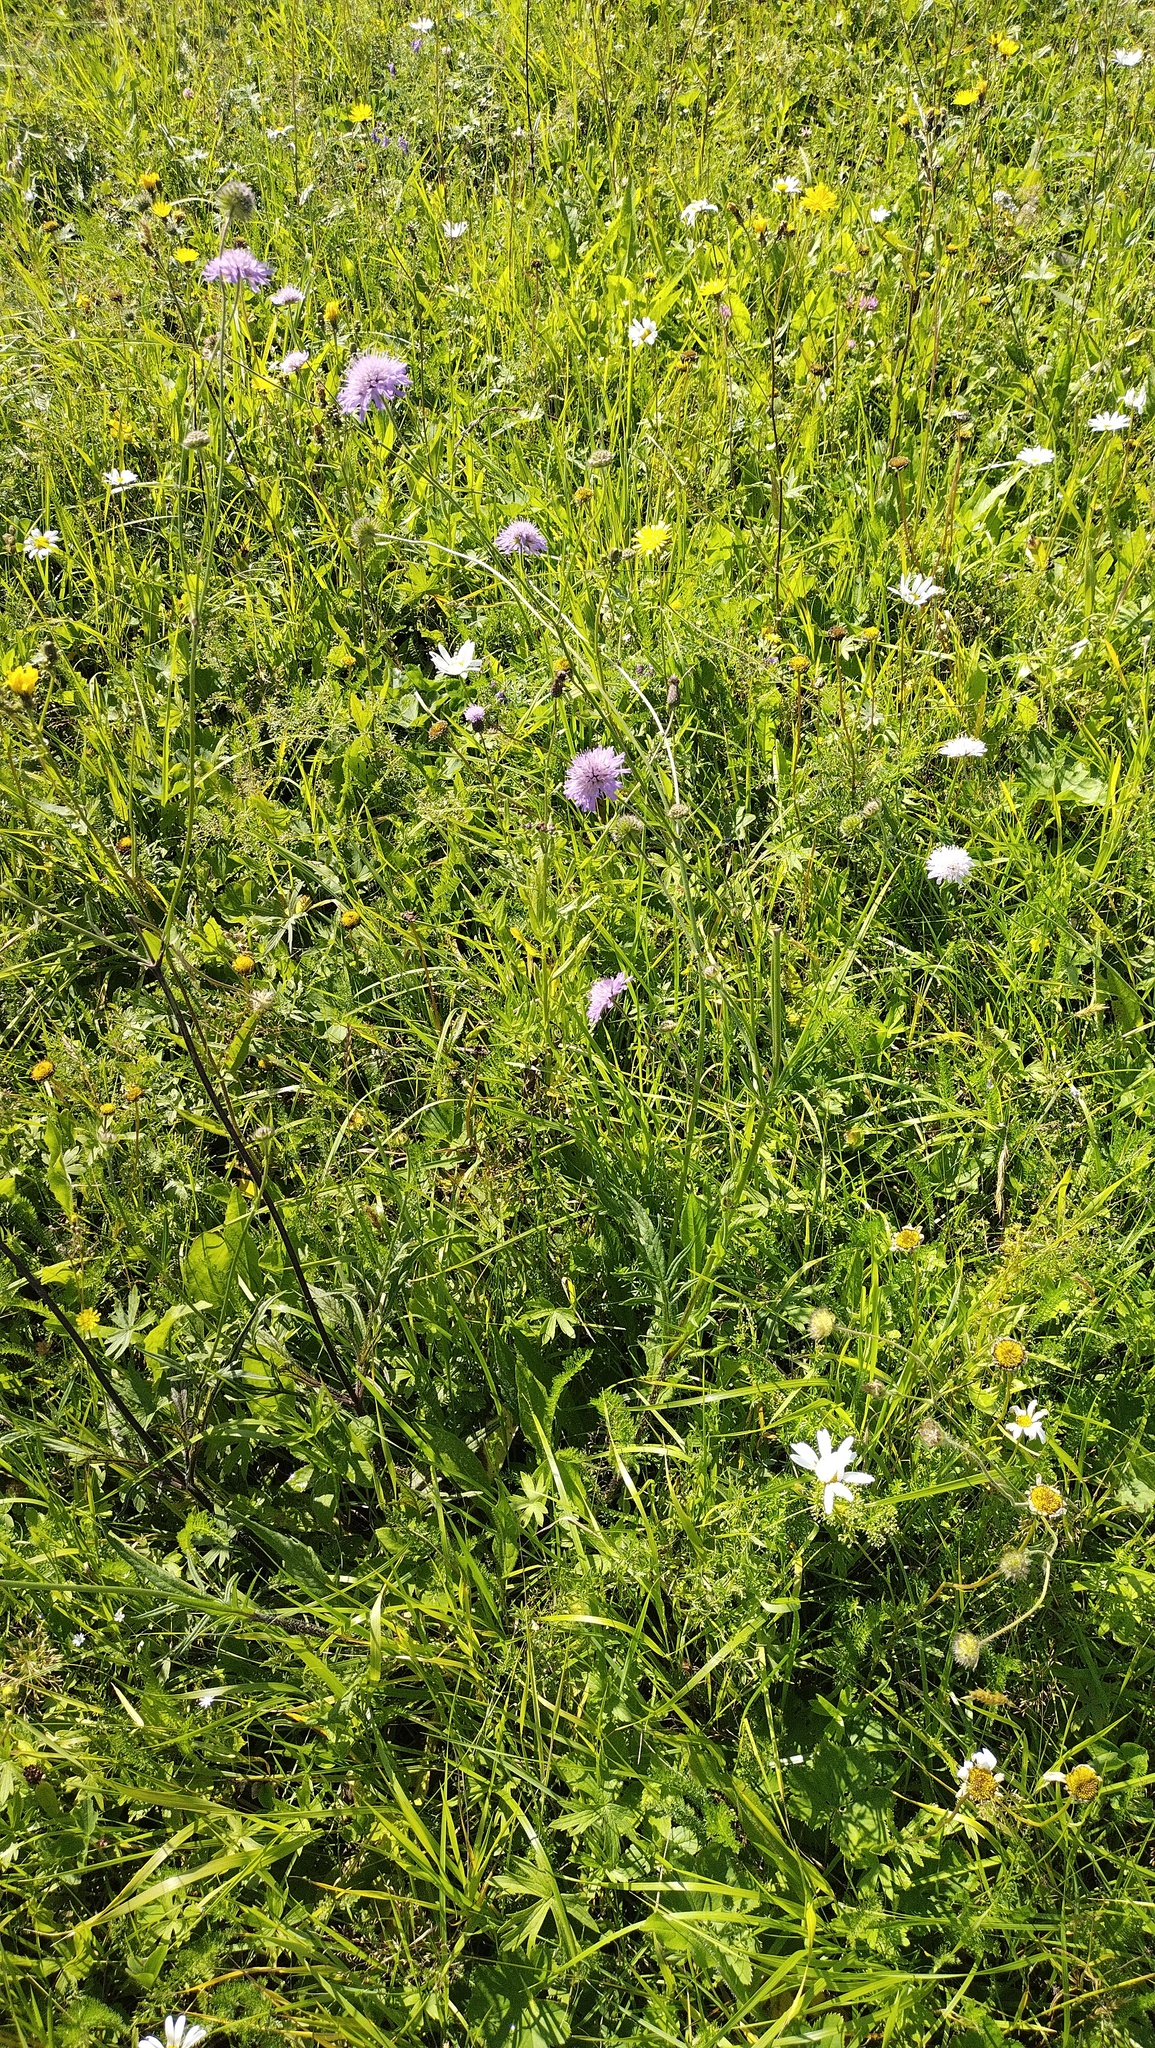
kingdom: Plantae
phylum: Tracheophyta
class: Magnoliopsida
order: Dipsacales
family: Caprifoliaceae
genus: Knautia
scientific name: Knautia arvensis
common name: Field scabiosa
